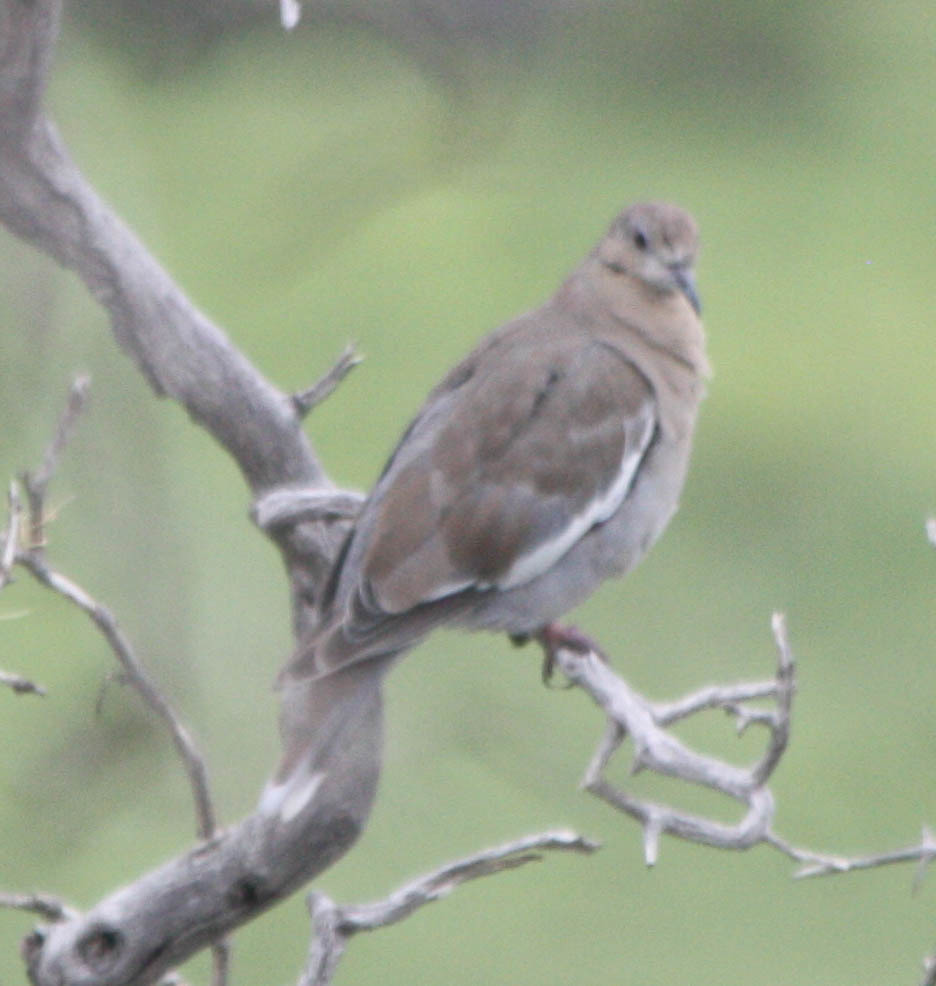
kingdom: Animalia
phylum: Chordata
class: Aves
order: Columbiformes
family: Columbidae
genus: Zenaida
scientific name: Zenaida asiatica
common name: White-winged dove
